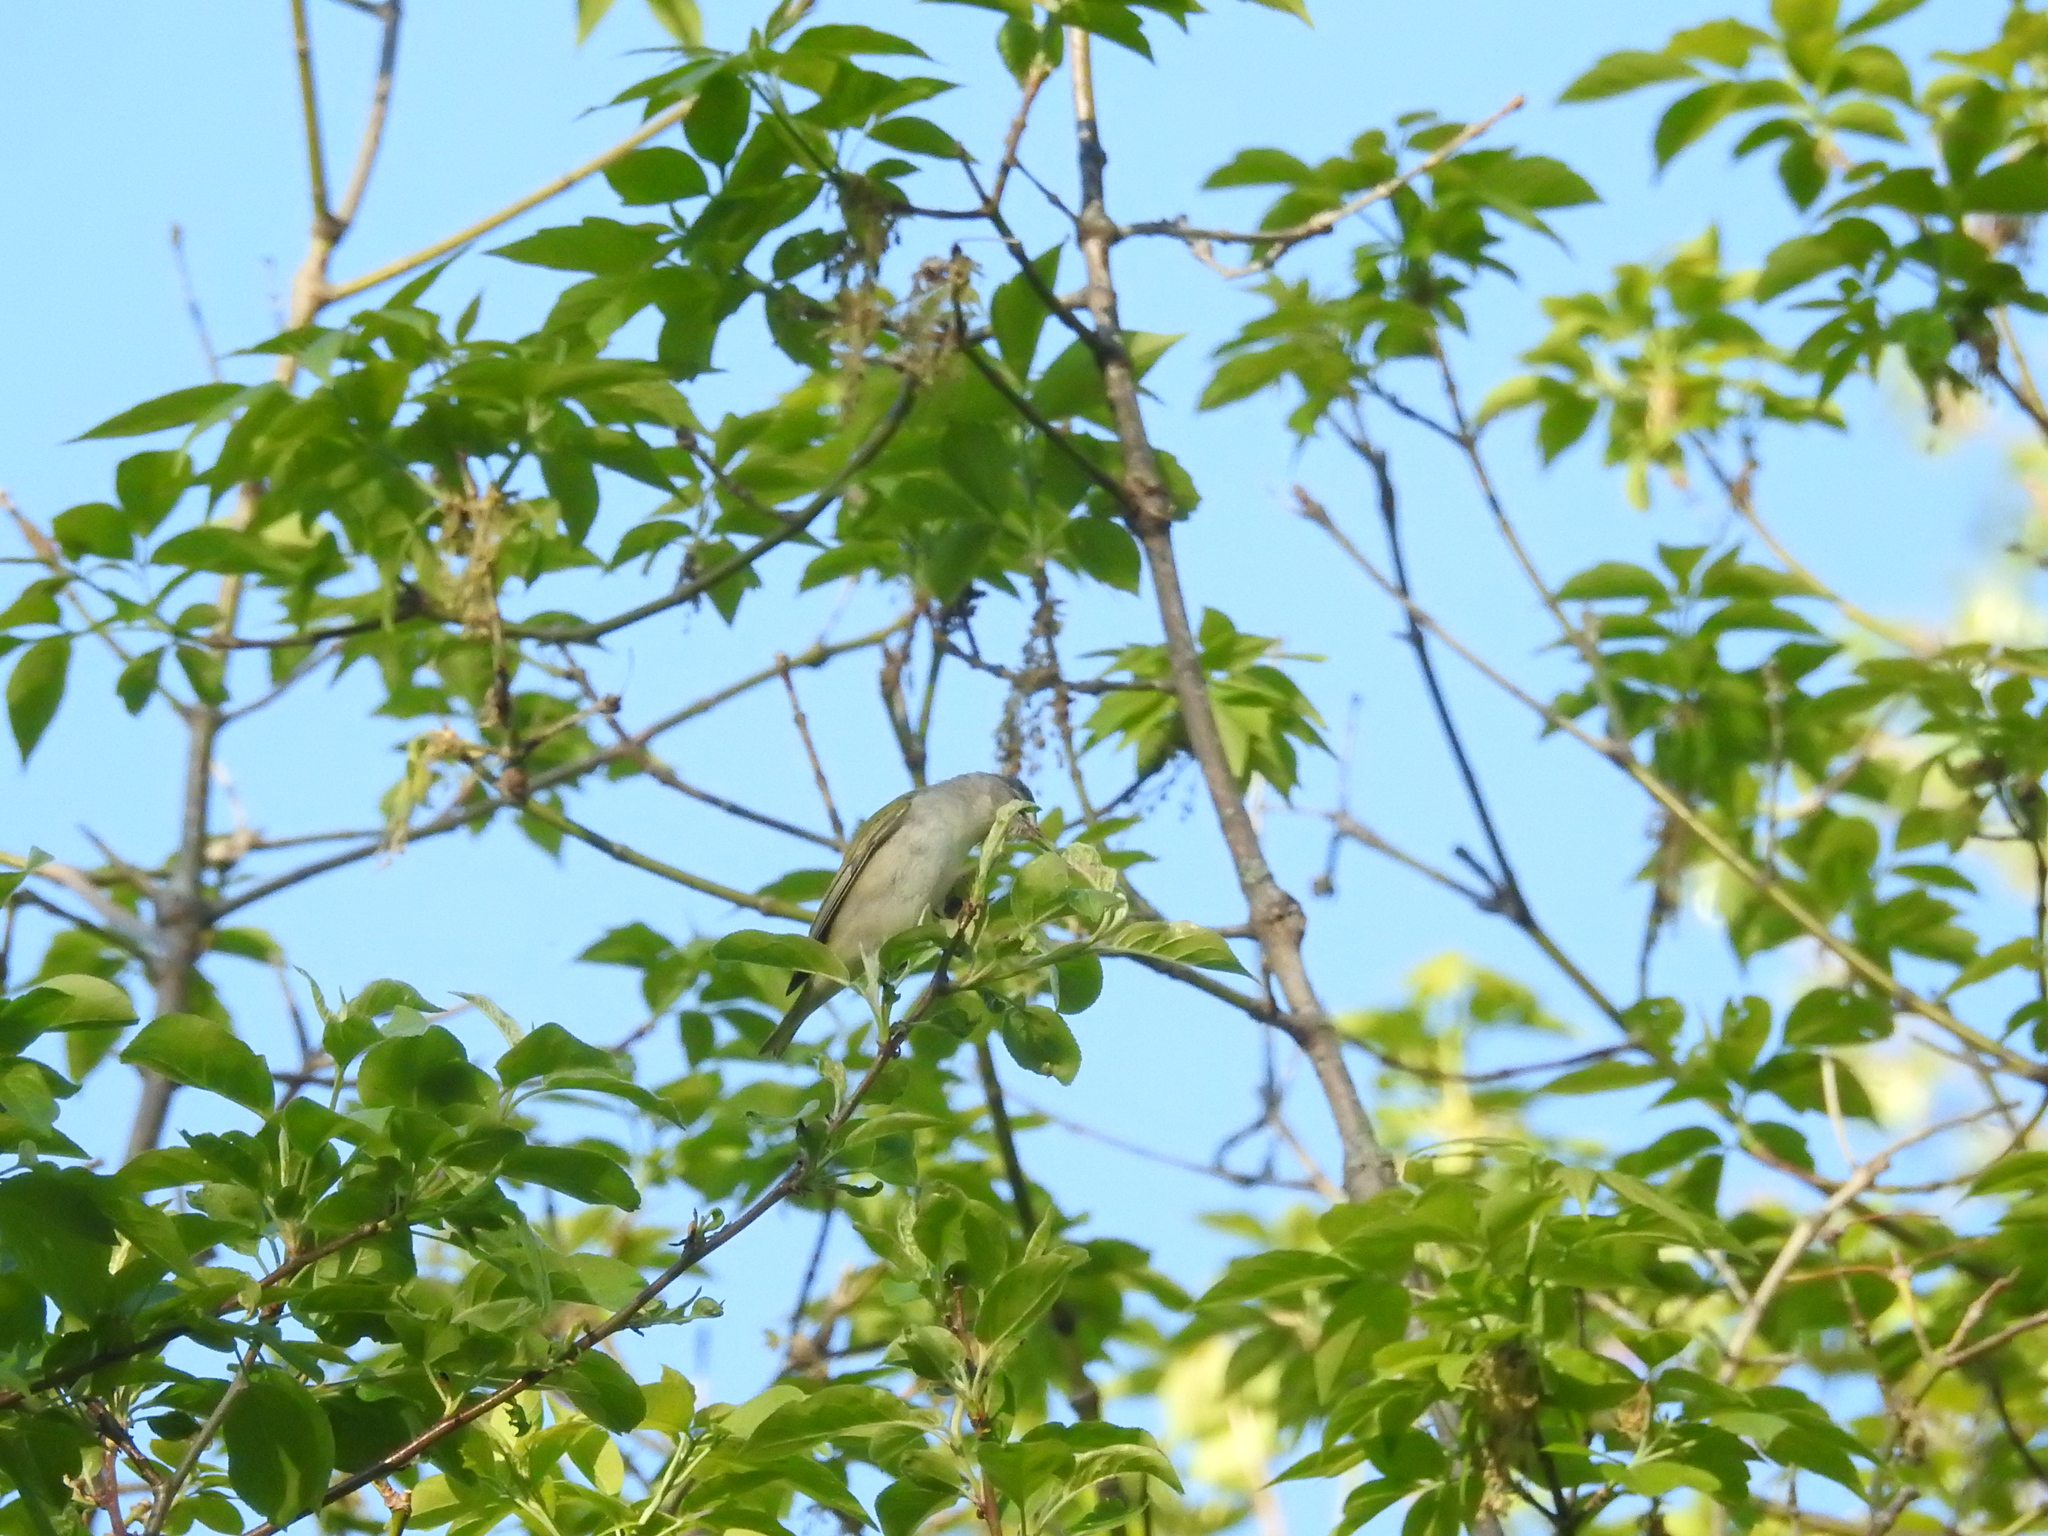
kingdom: Animalia
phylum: Chordata
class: Aves
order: Passeriformes
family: Parulidae
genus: Leiothlypis
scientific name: Leiothlypis peregrina
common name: Tennessee warbler
